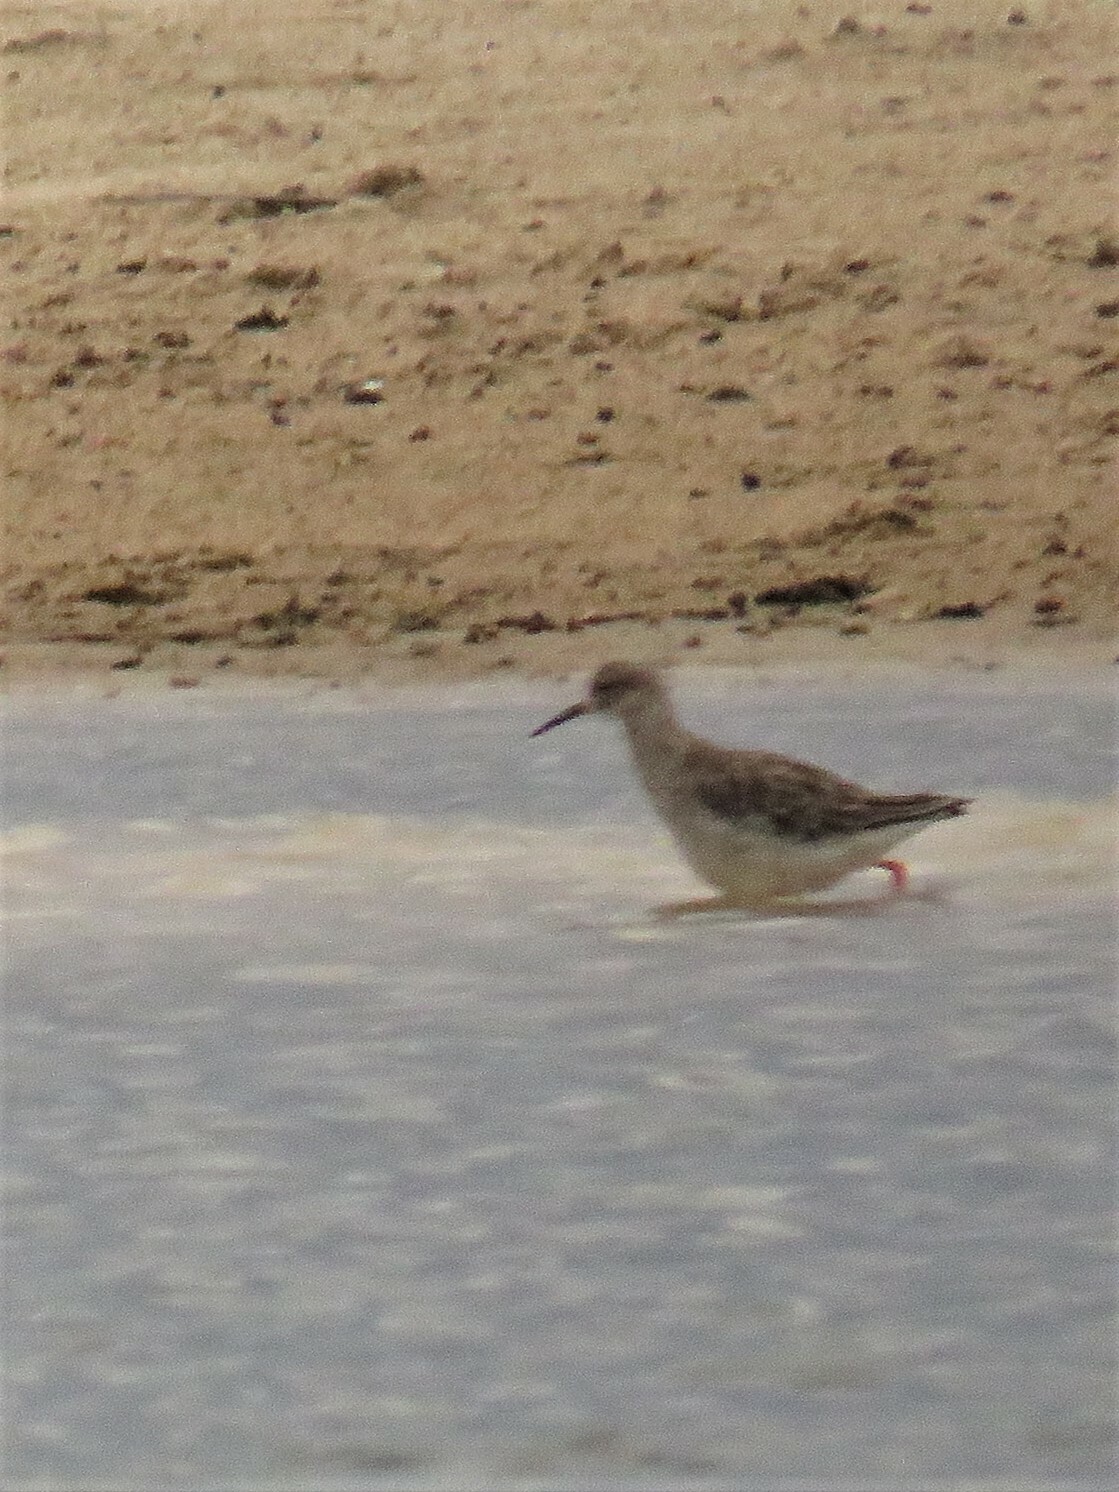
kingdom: Animalia
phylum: Chordata
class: Aves
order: Charadriiformes
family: Scolopacidae
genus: Calidris
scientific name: Calidris pugnax
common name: Ruff
